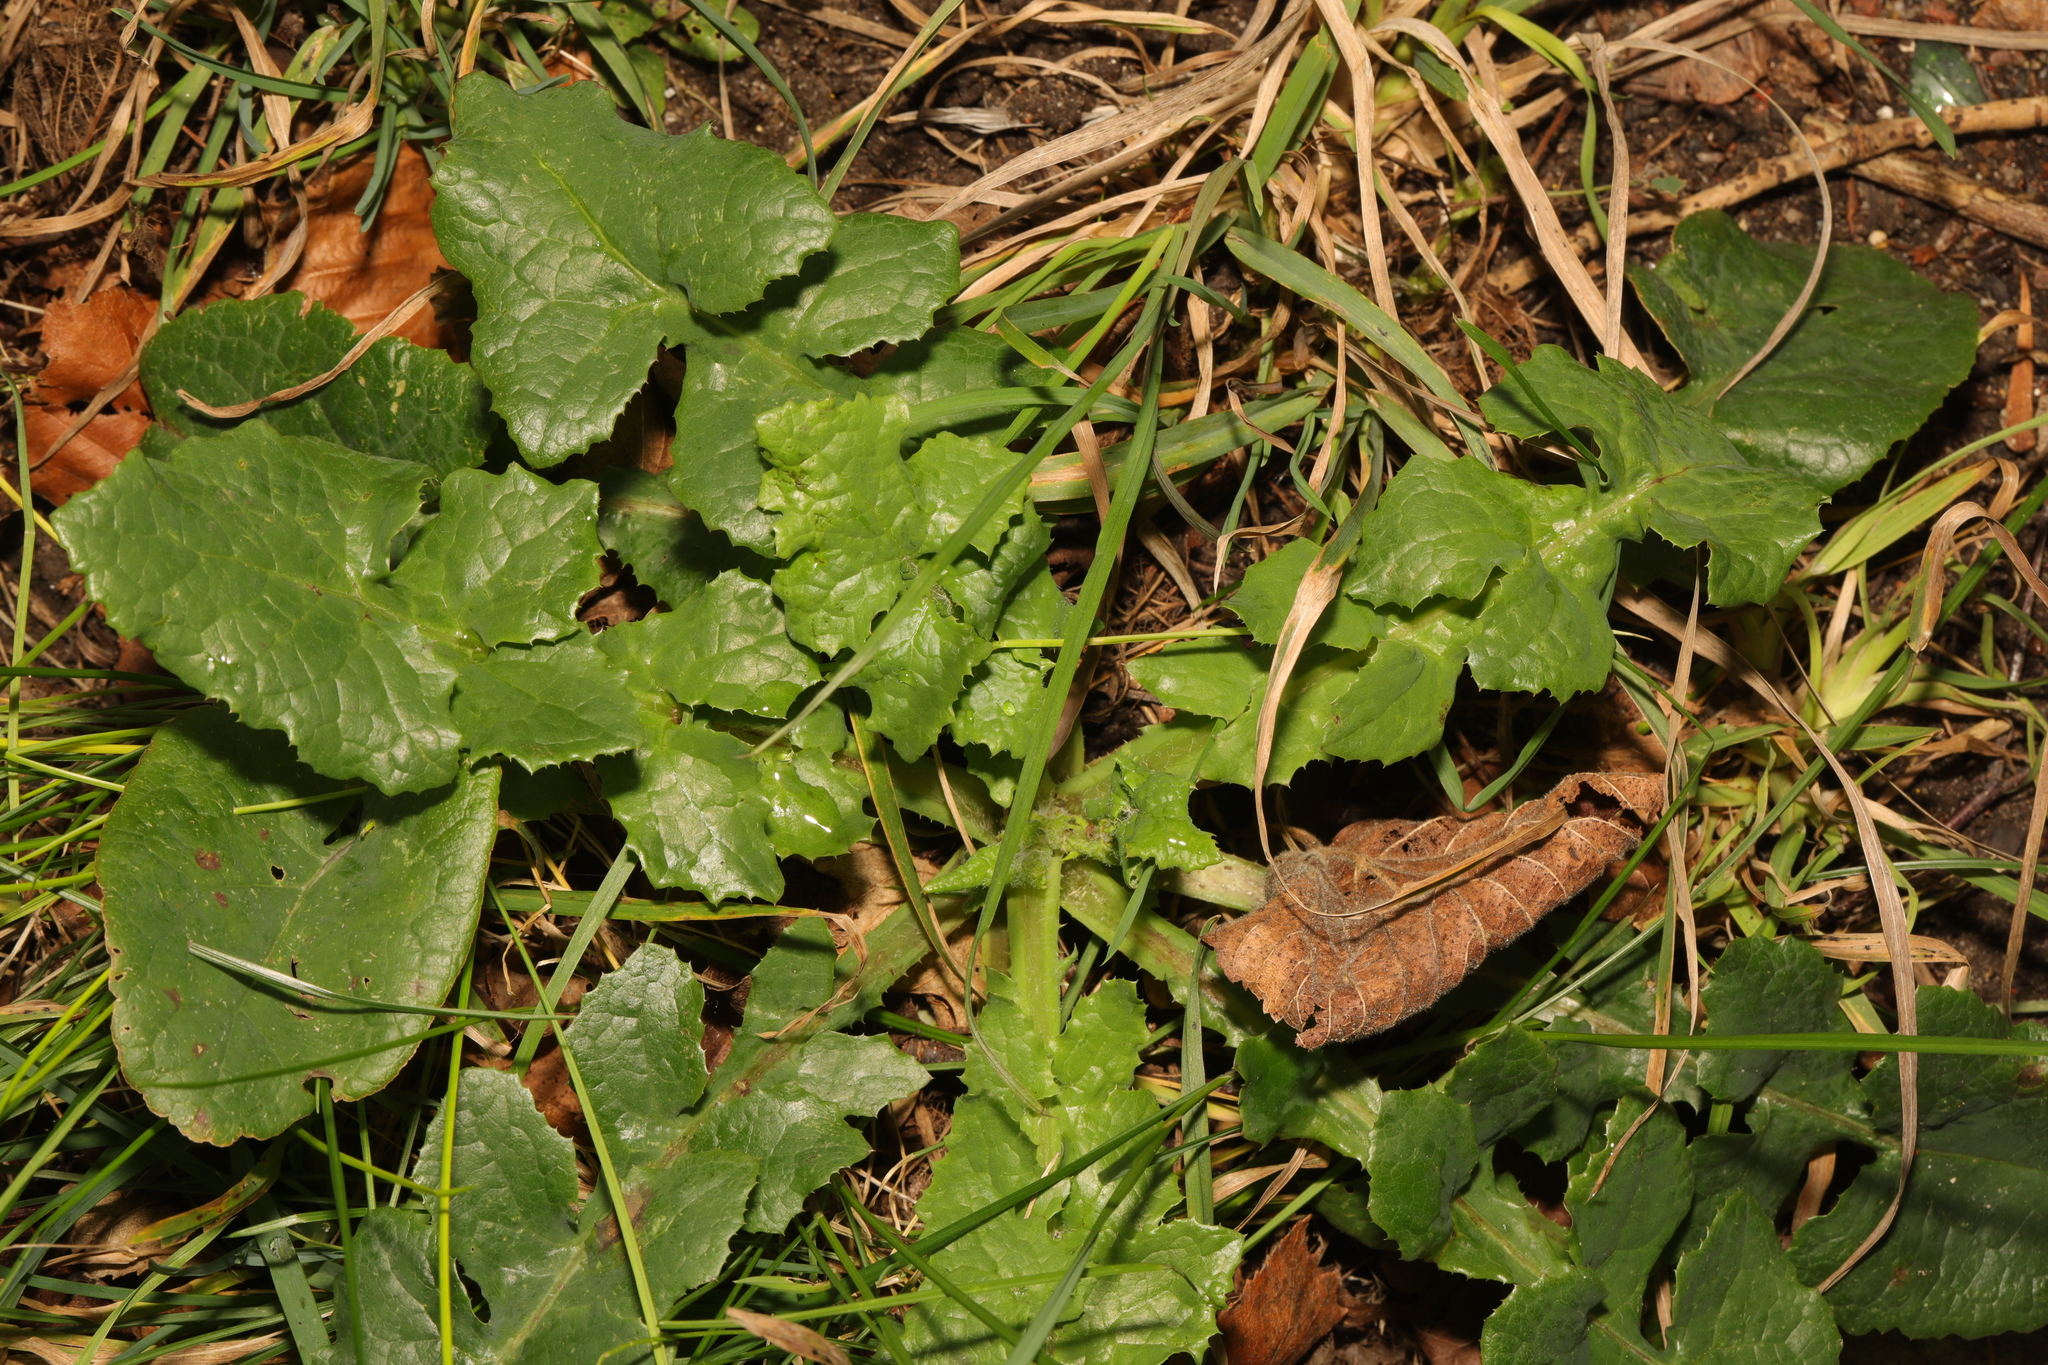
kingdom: Plantae
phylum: Tracheophyta
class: Magnoliopsida
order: Asterales
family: Asteraceae
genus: Sonchus
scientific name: Sonchus oleraceus
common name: Common sowthistle
